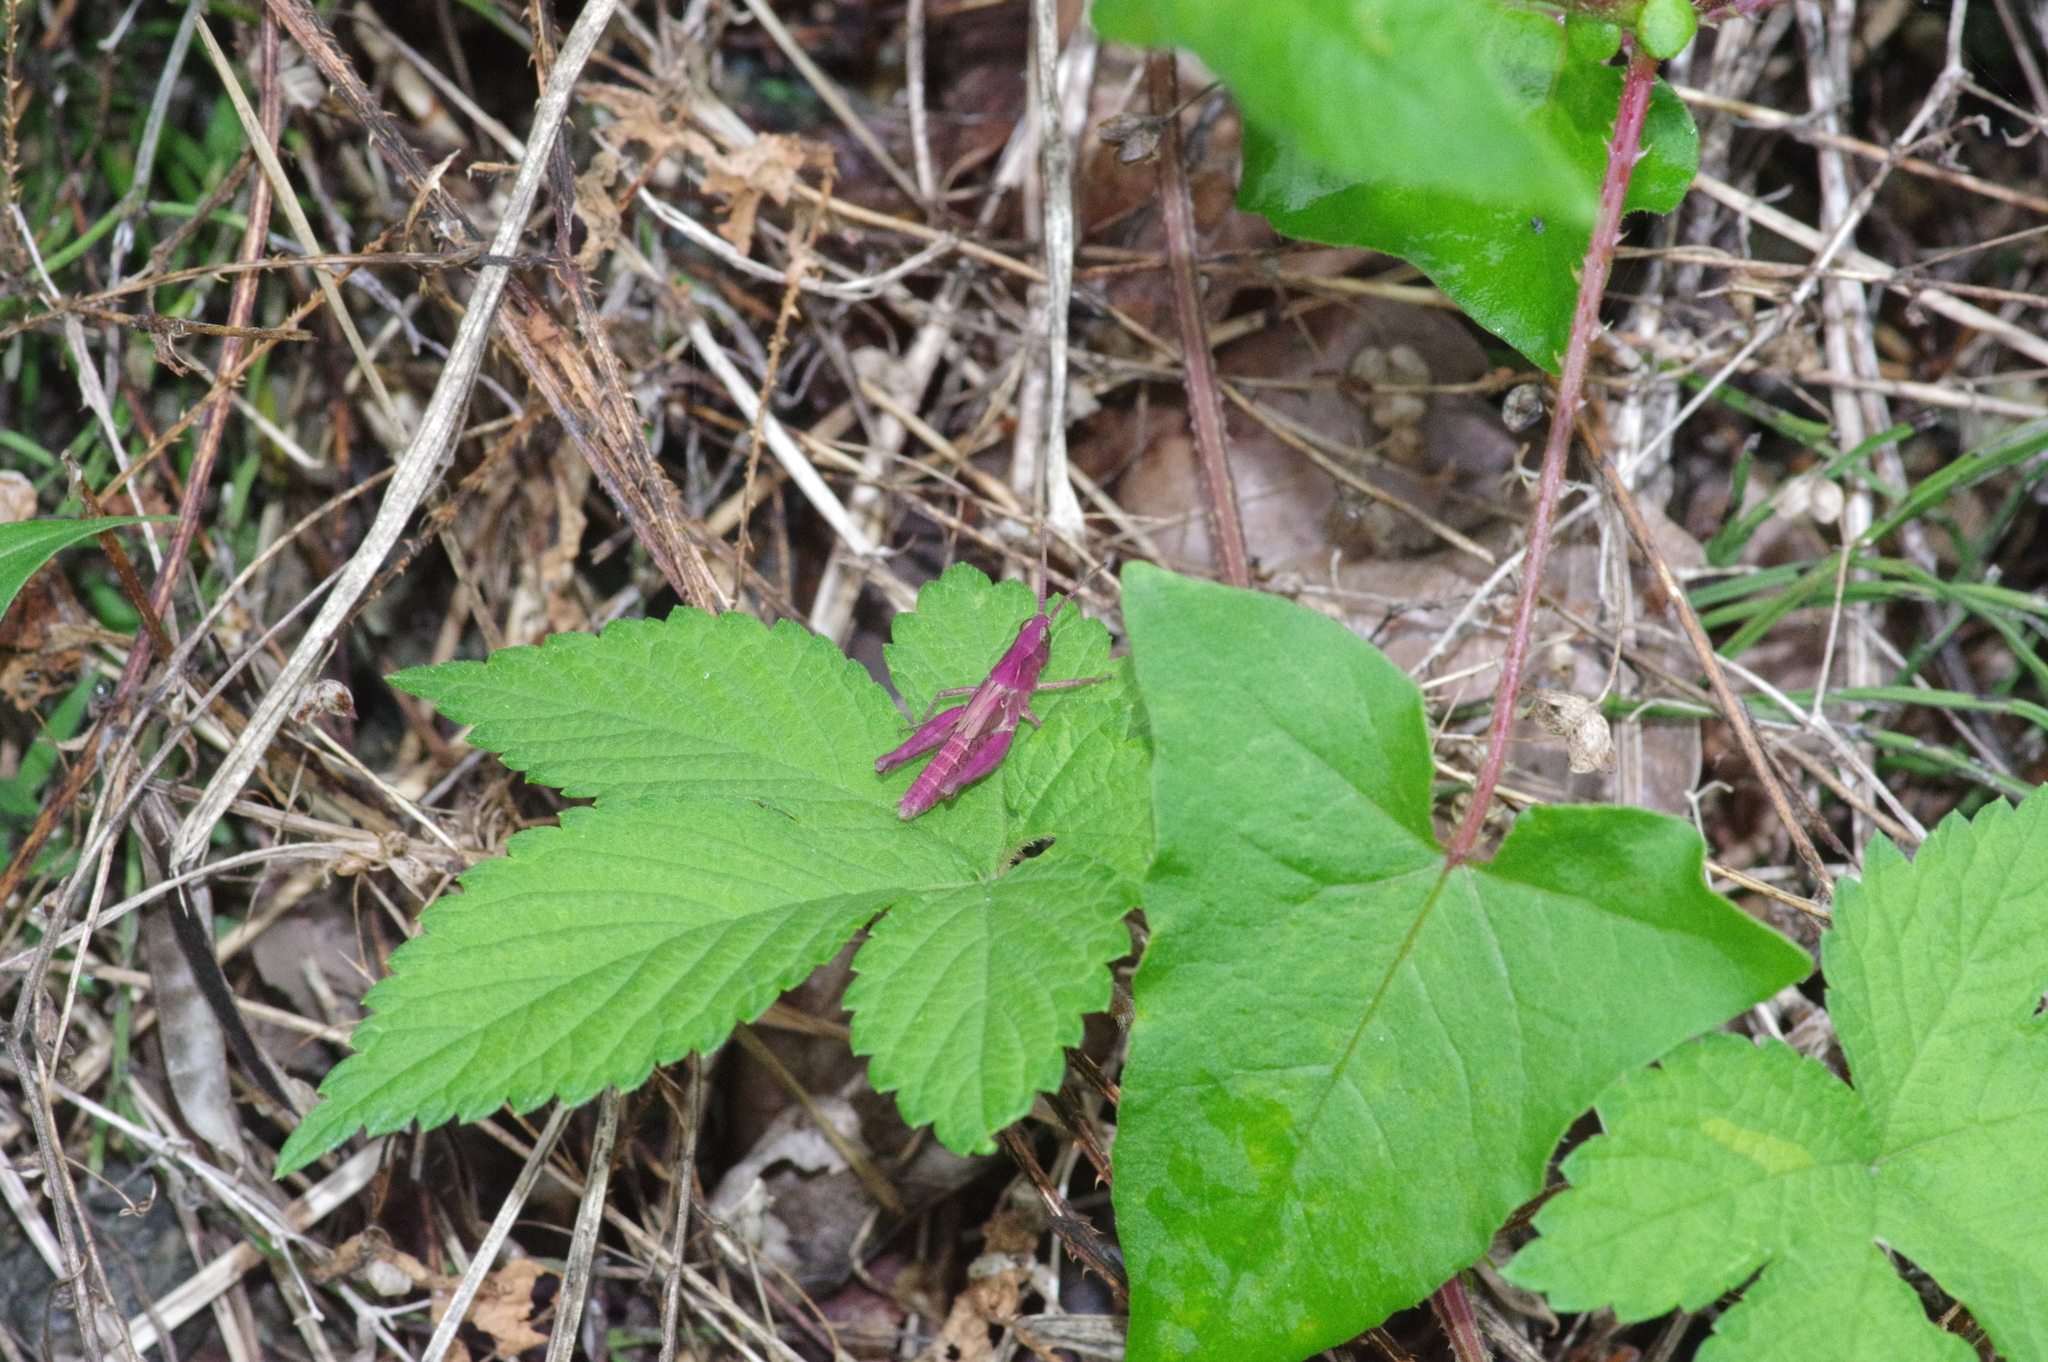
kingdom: Animalia
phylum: Arthropoda
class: Insecta
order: Orthoptera
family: Acrididae
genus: Chorthippus
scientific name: Chorthippus maritimus
